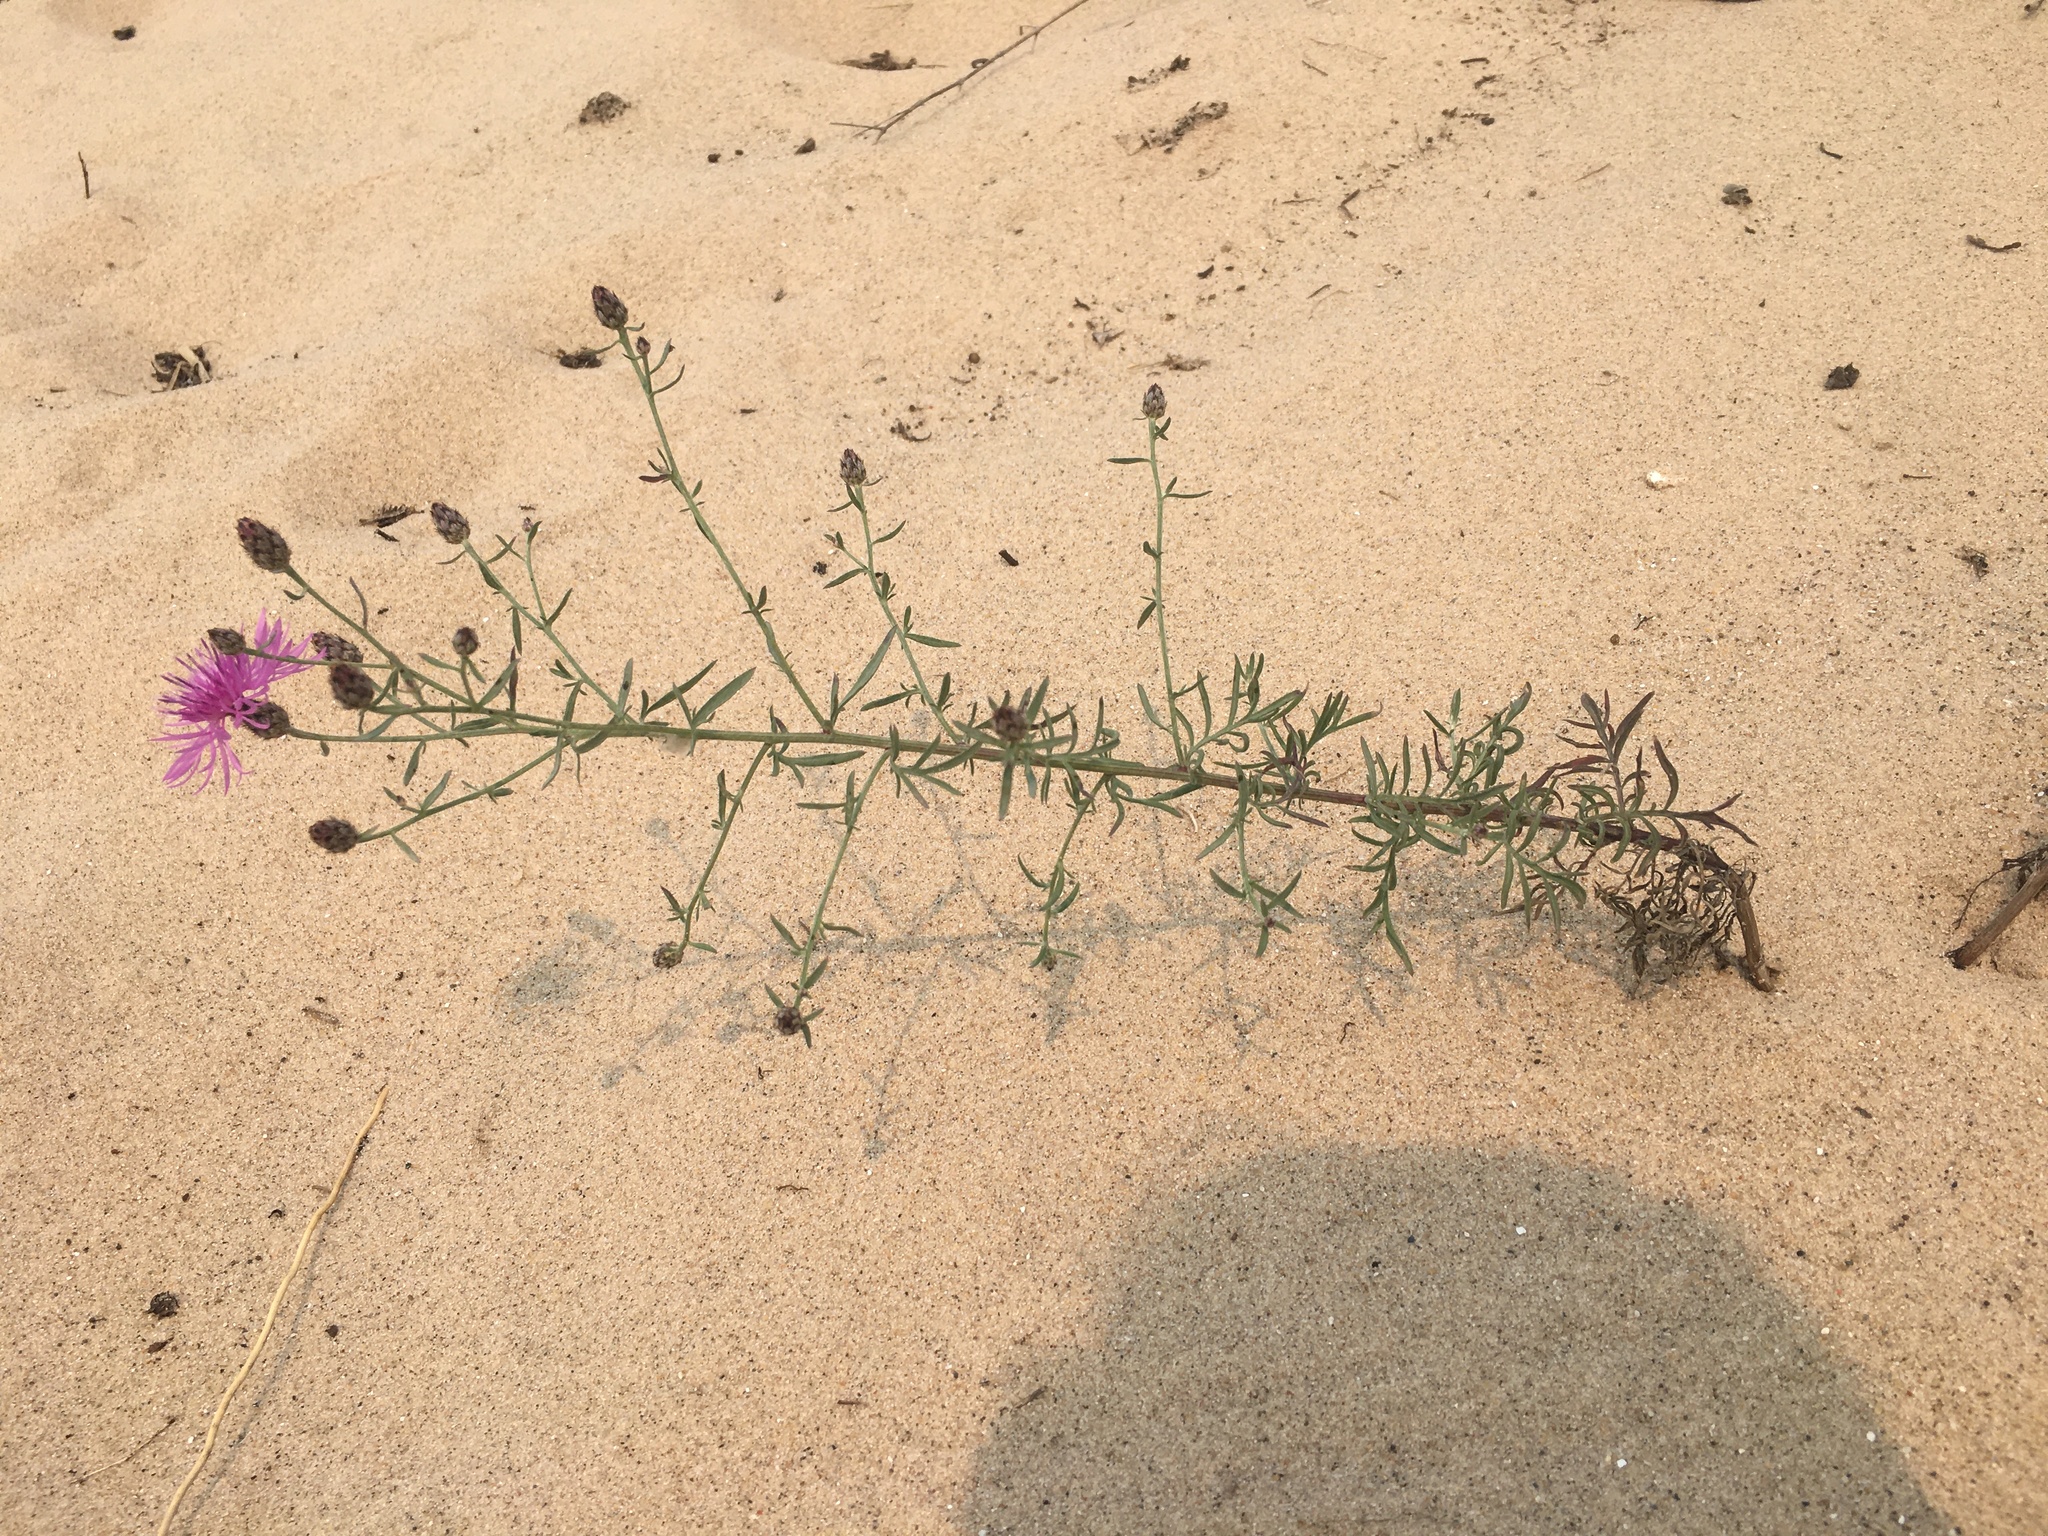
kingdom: Plantae
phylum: Tracheophyta
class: Magnoliopsida
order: Asterales
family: Asteraceae
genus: Centaurea
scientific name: Centaurea stoebe
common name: Spotted knapweed
